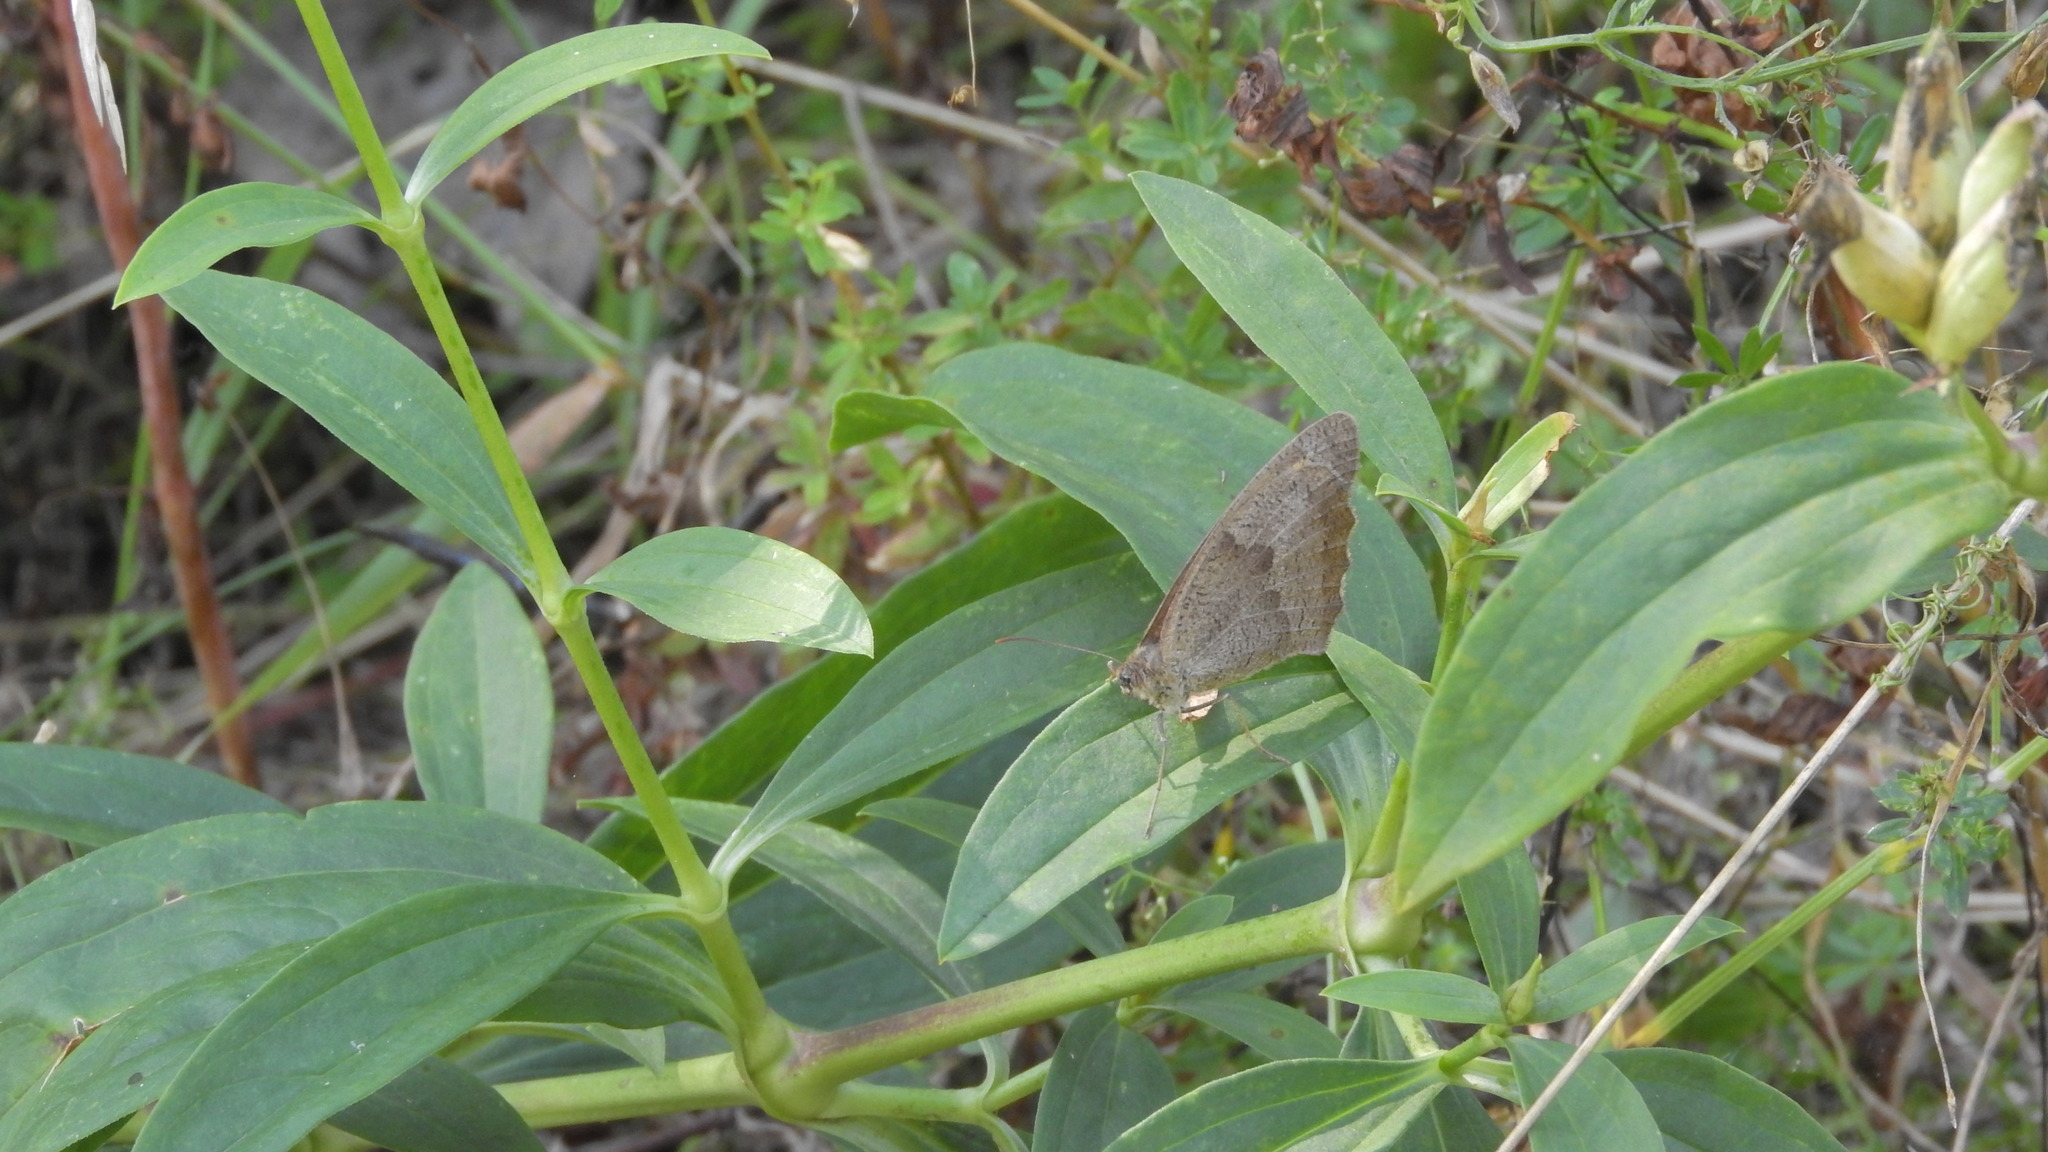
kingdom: Animalia
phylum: Arthropoda
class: Insecta
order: Lepidoptera
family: Nymphalidae
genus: Maniola
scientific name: Maniola jurtina
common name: Meadow brown
